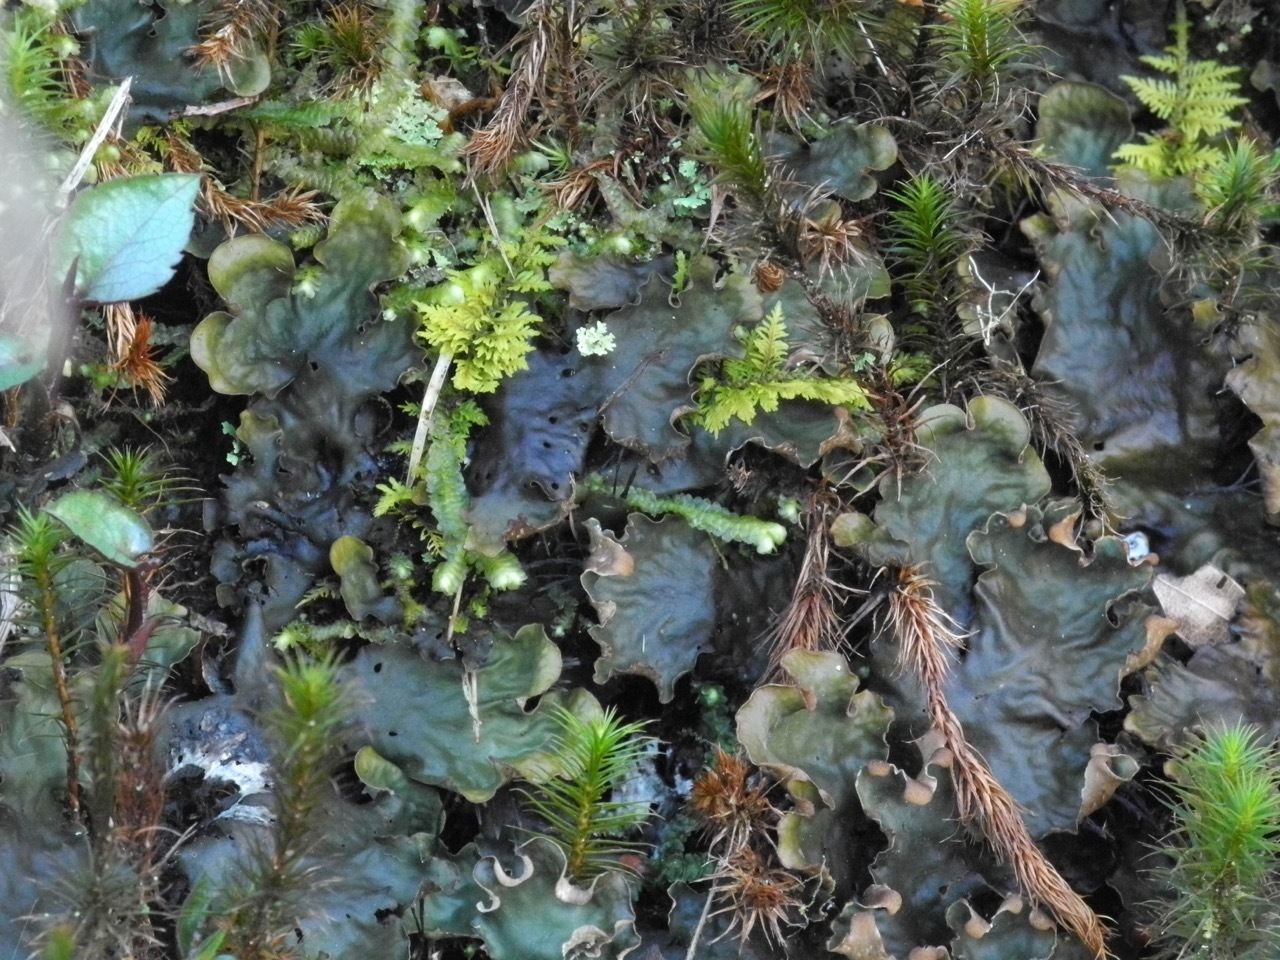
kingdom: Plantae
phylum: Bryophyta
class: Bryopsida
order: Hypnales
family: Thuidiaceae
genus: Thuidium
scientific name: Thuidium delicatulum
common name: Delicate fern moss
